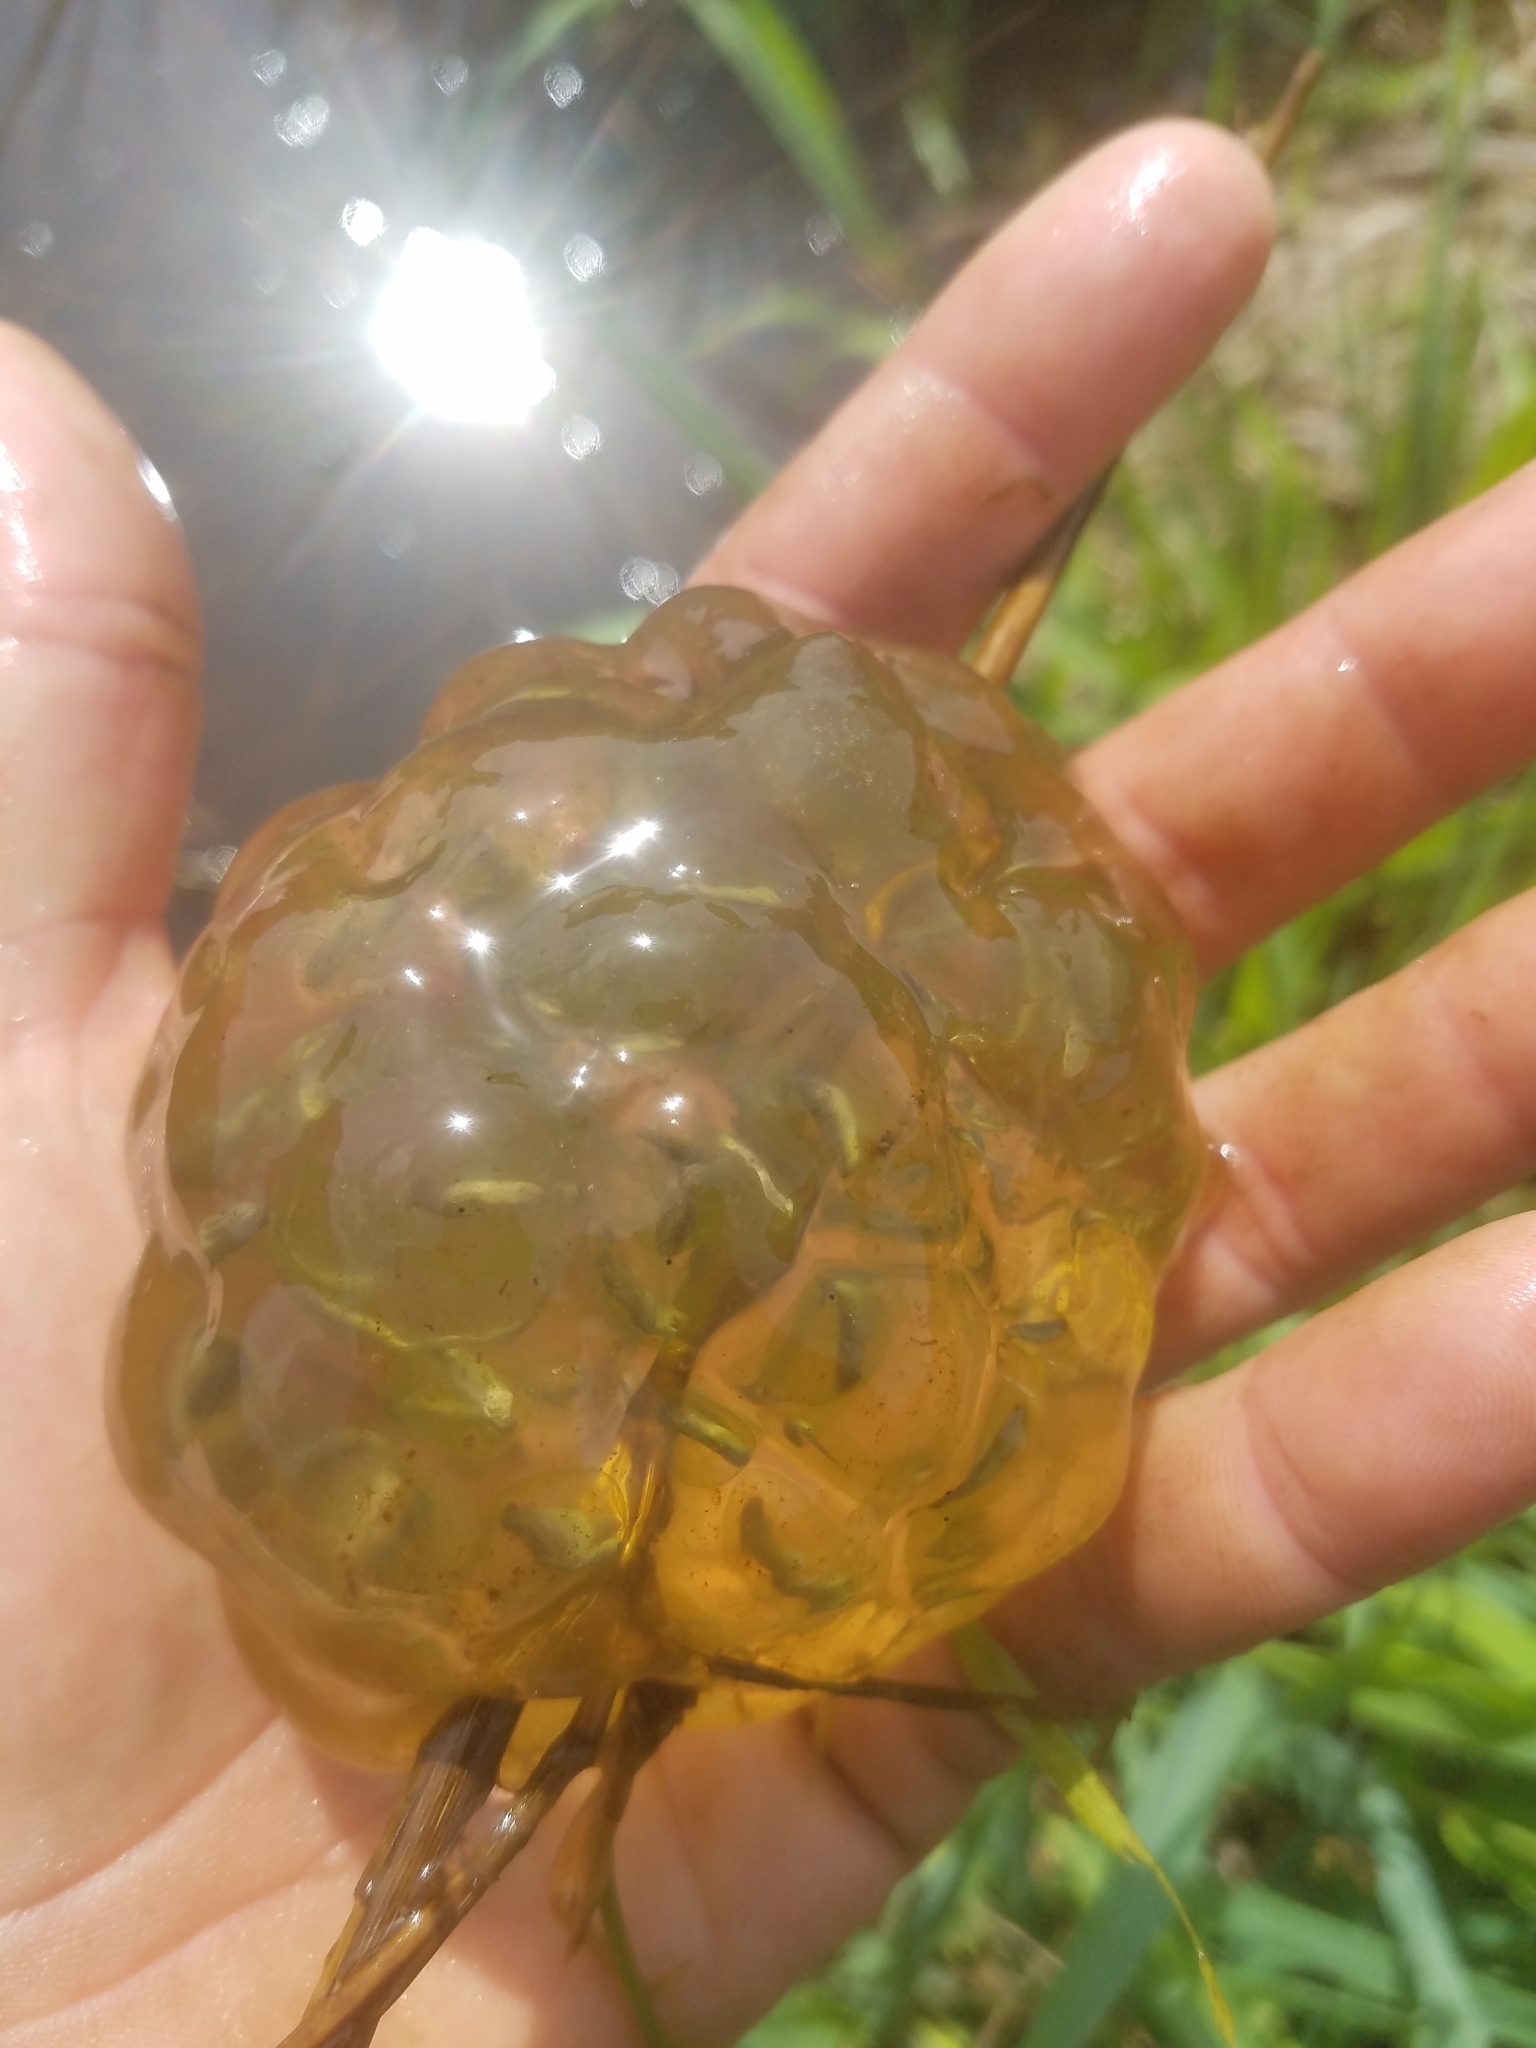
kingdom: Animalia
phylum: Chordata
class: Amphibia
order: Caudata
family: Ambystomatidae
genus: Ambystoma
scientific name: Ambystoma gracile
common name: Northwestern salamander
